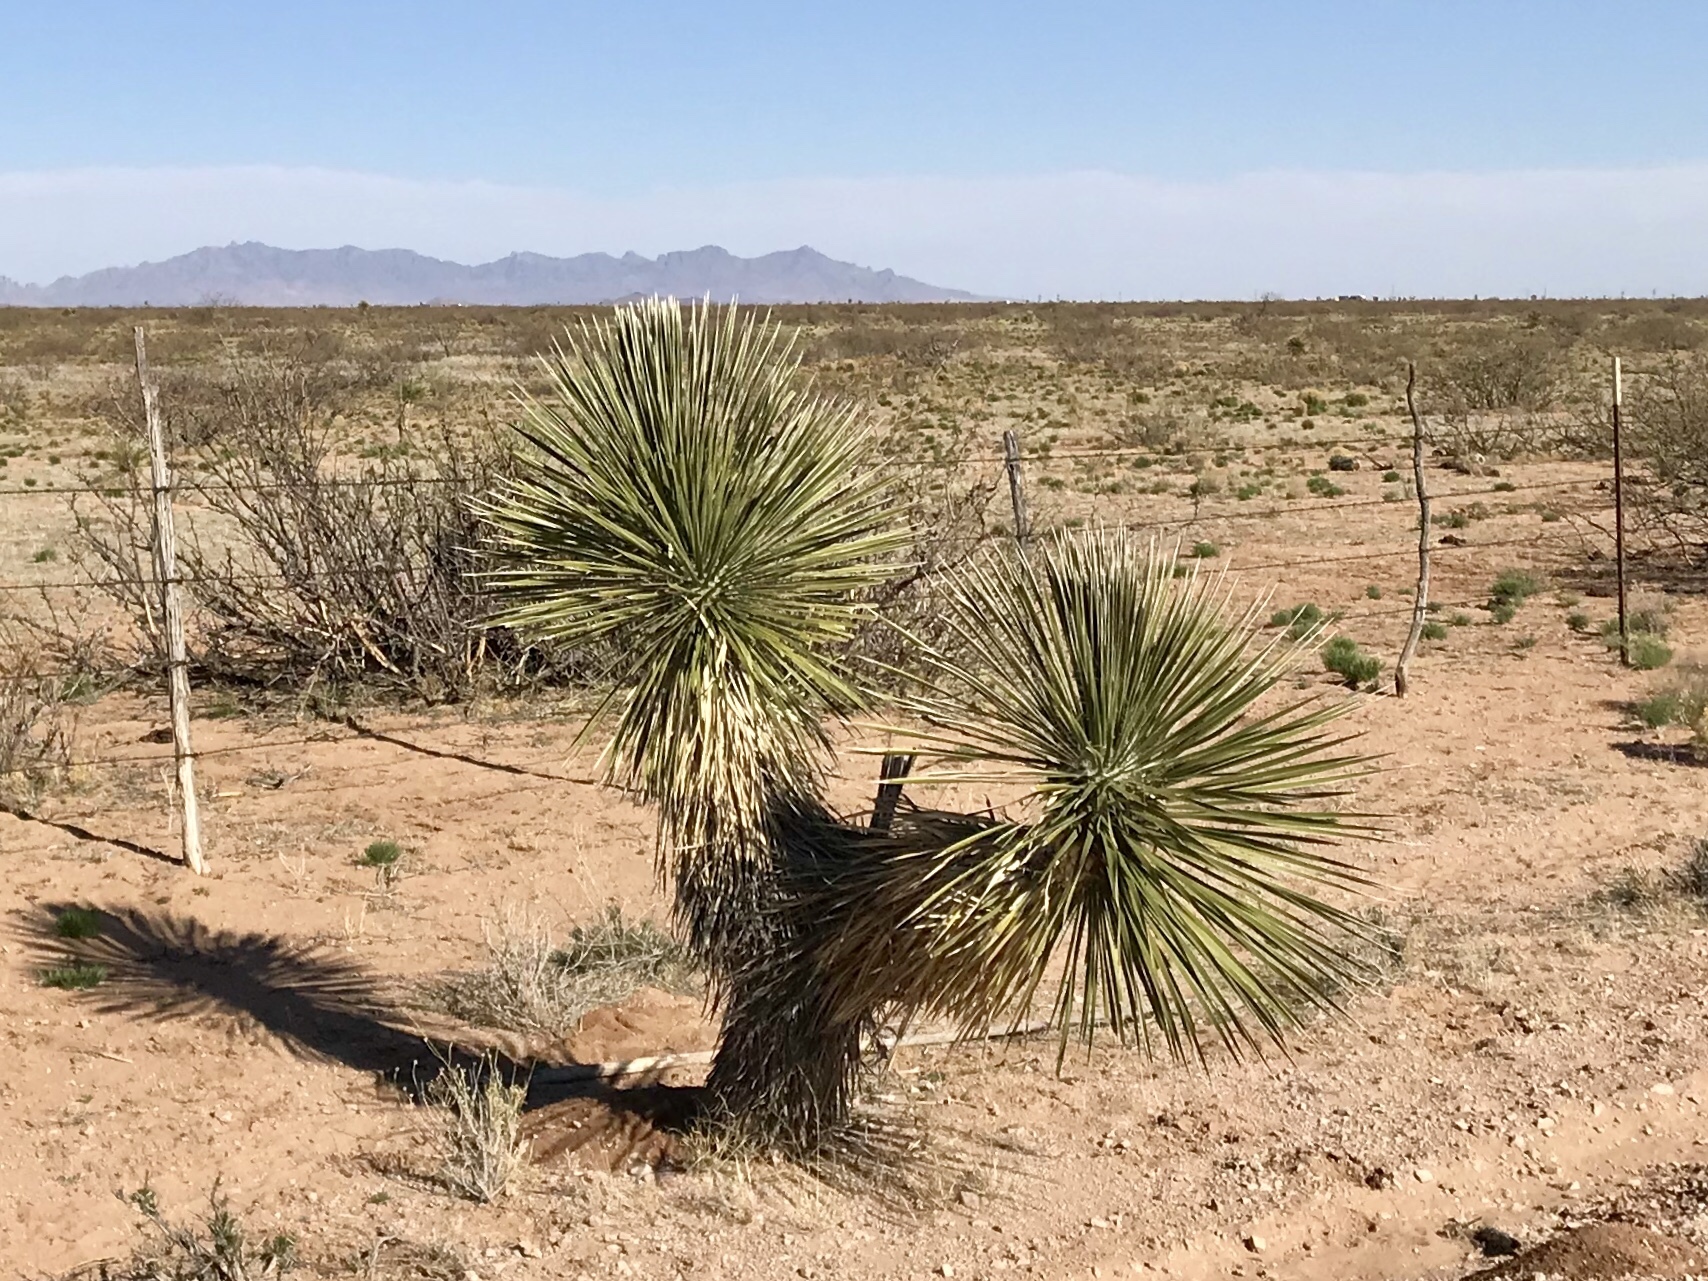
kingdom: Plantae
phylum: Tracheophyta
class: Liliopsida
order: Asparagales
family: Asparagaceae
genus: Yucca
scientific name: Yucca elata
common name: Palmella
